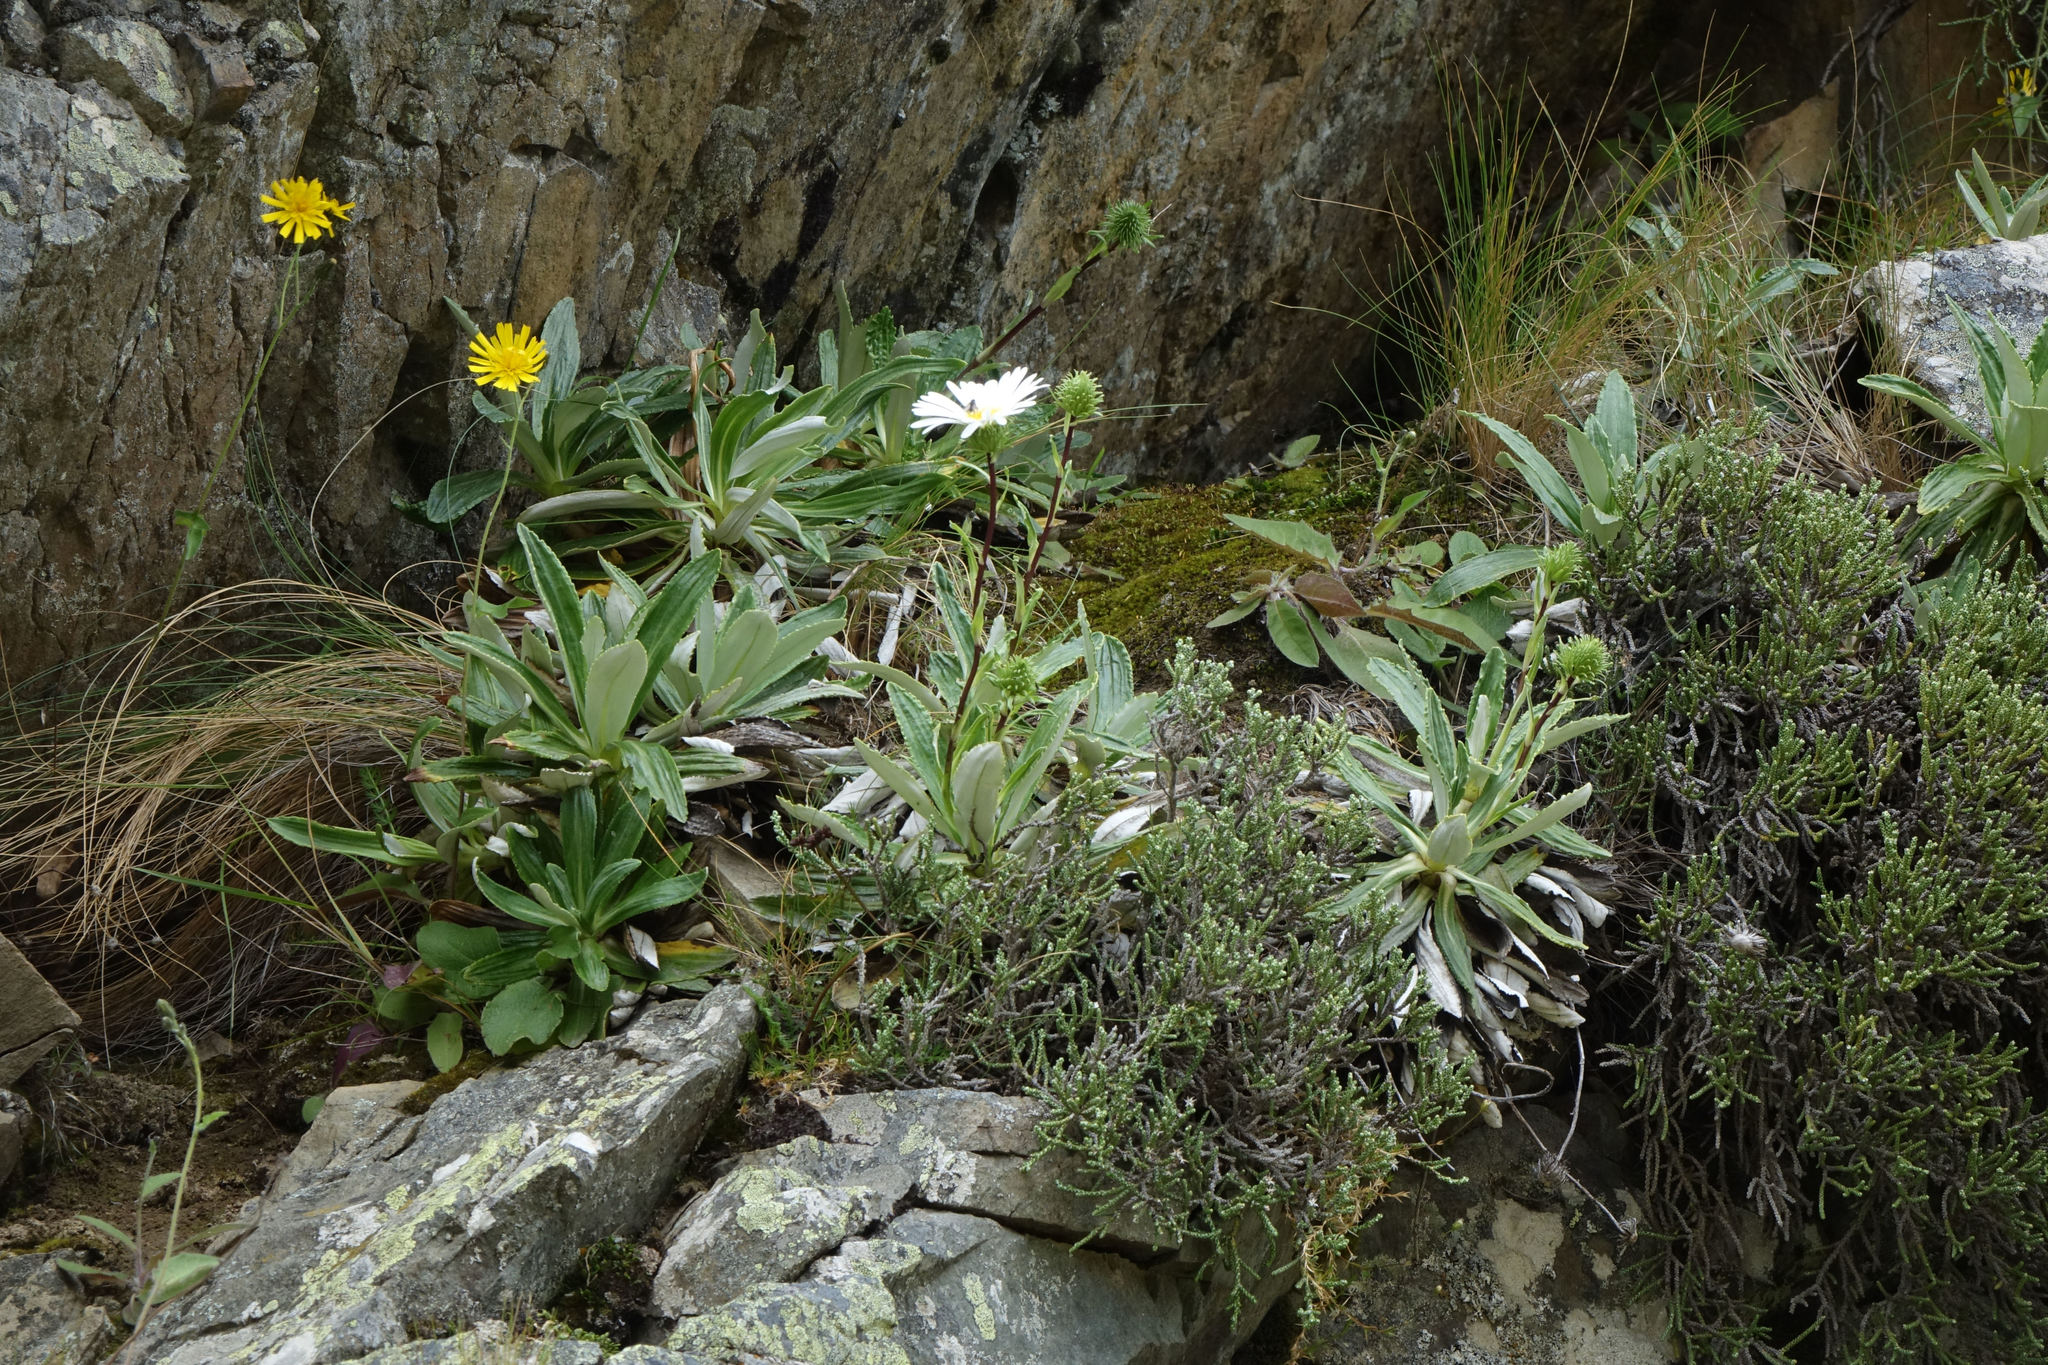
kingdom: Plantae
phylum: Tracheophyta
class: Magnoliopsida
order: Asterales
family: Asteraceae
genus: Celmisia
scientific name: Celmisia densiflora
